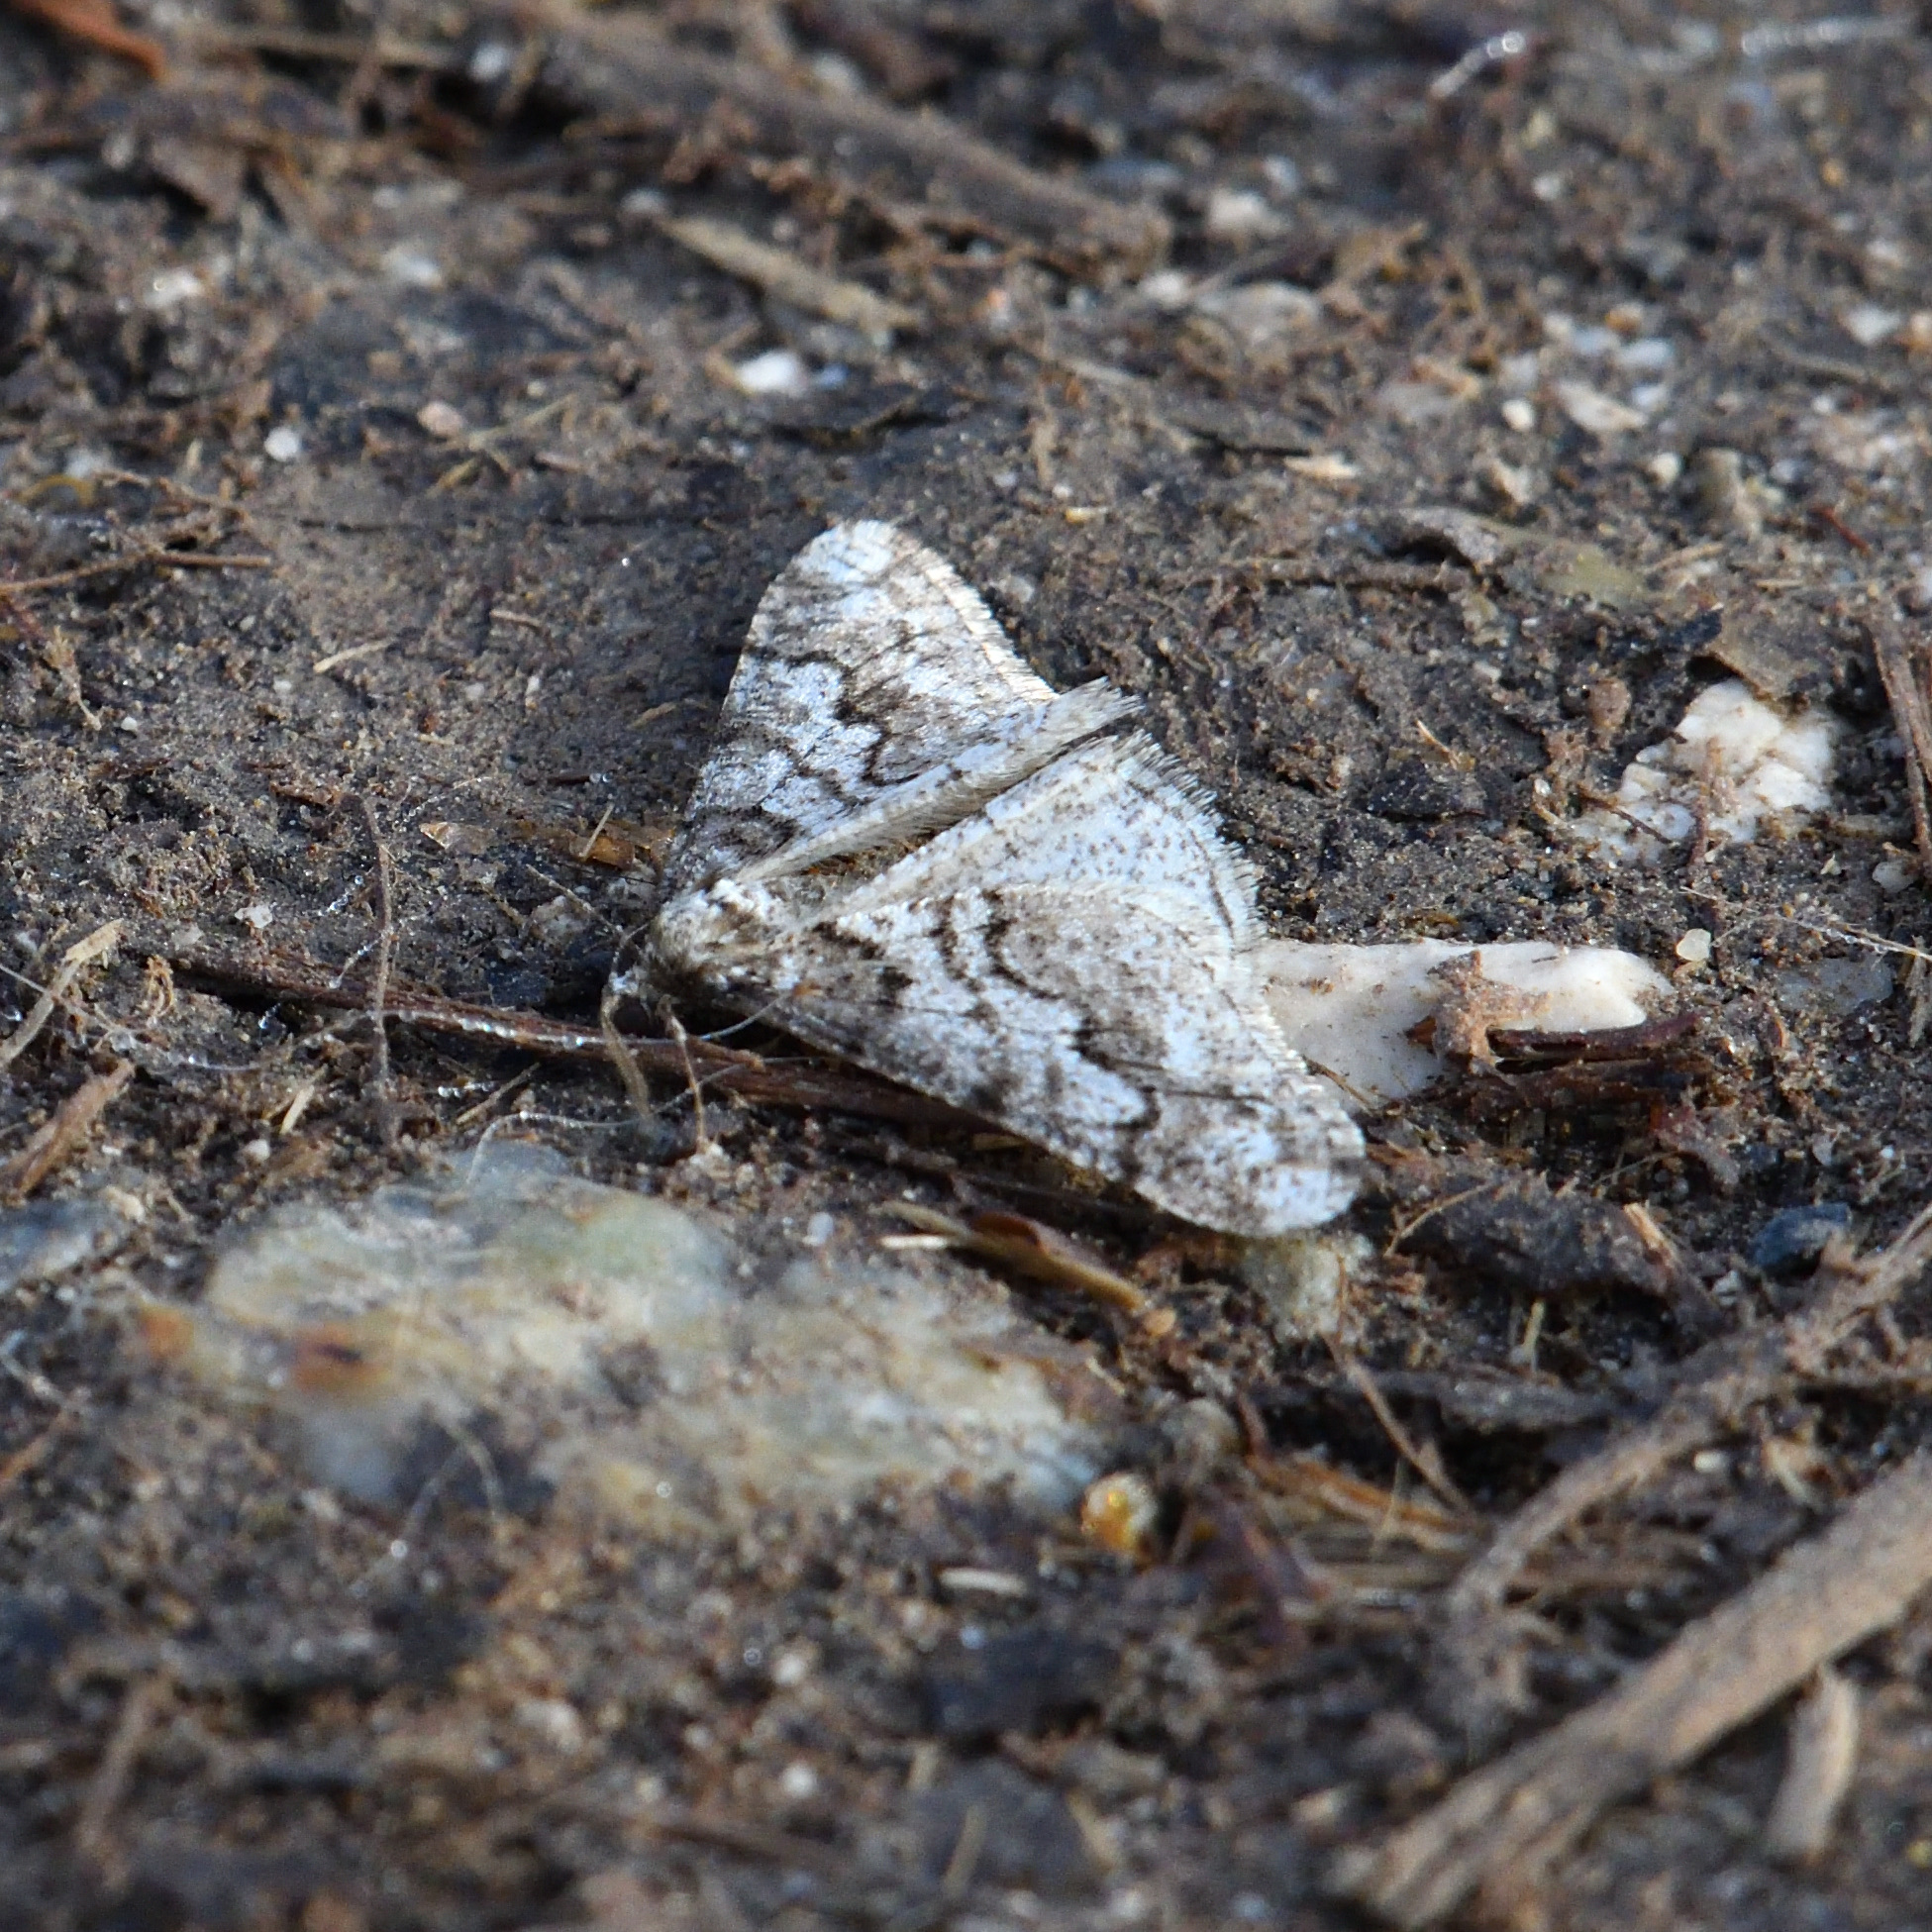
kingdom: Animalia
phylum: Arthropoda
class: Insecta
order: Lepidoptera
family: Geometridae
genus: Agriopis
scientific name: Agriopis leucophaearia
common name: Spring usher
